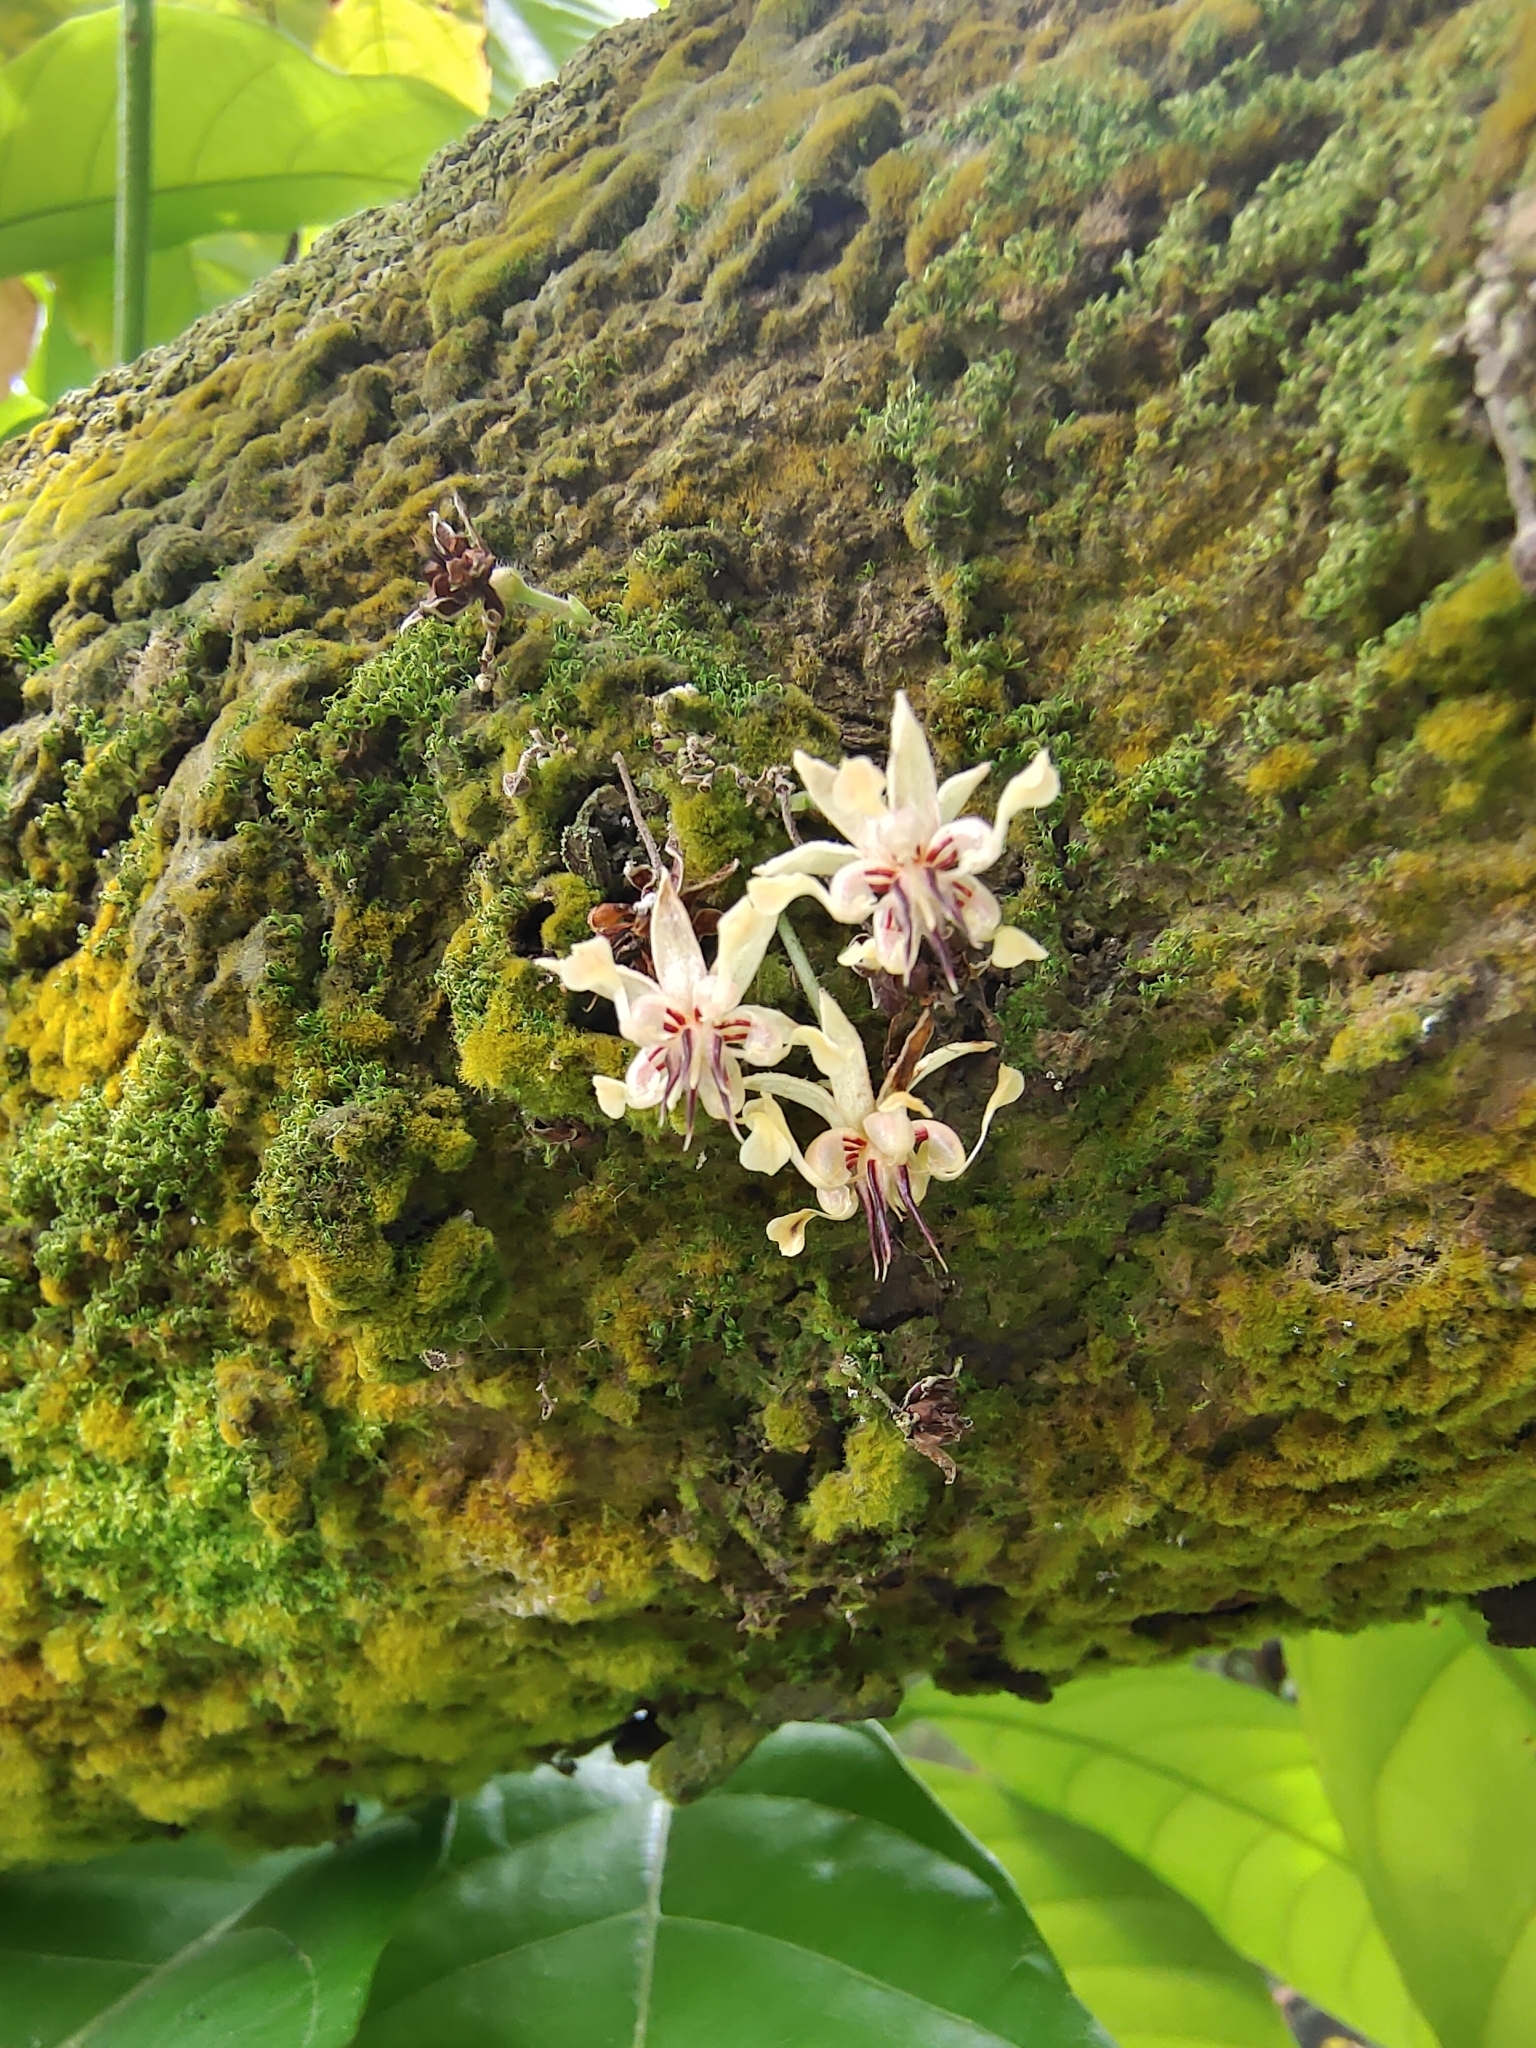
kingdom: Plantae
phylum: Tracheophyta
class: Magnoliopsida
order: Malvales
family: Malvaceae
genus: Theobroma
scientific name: Theobroma cacao
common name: Cocoa
